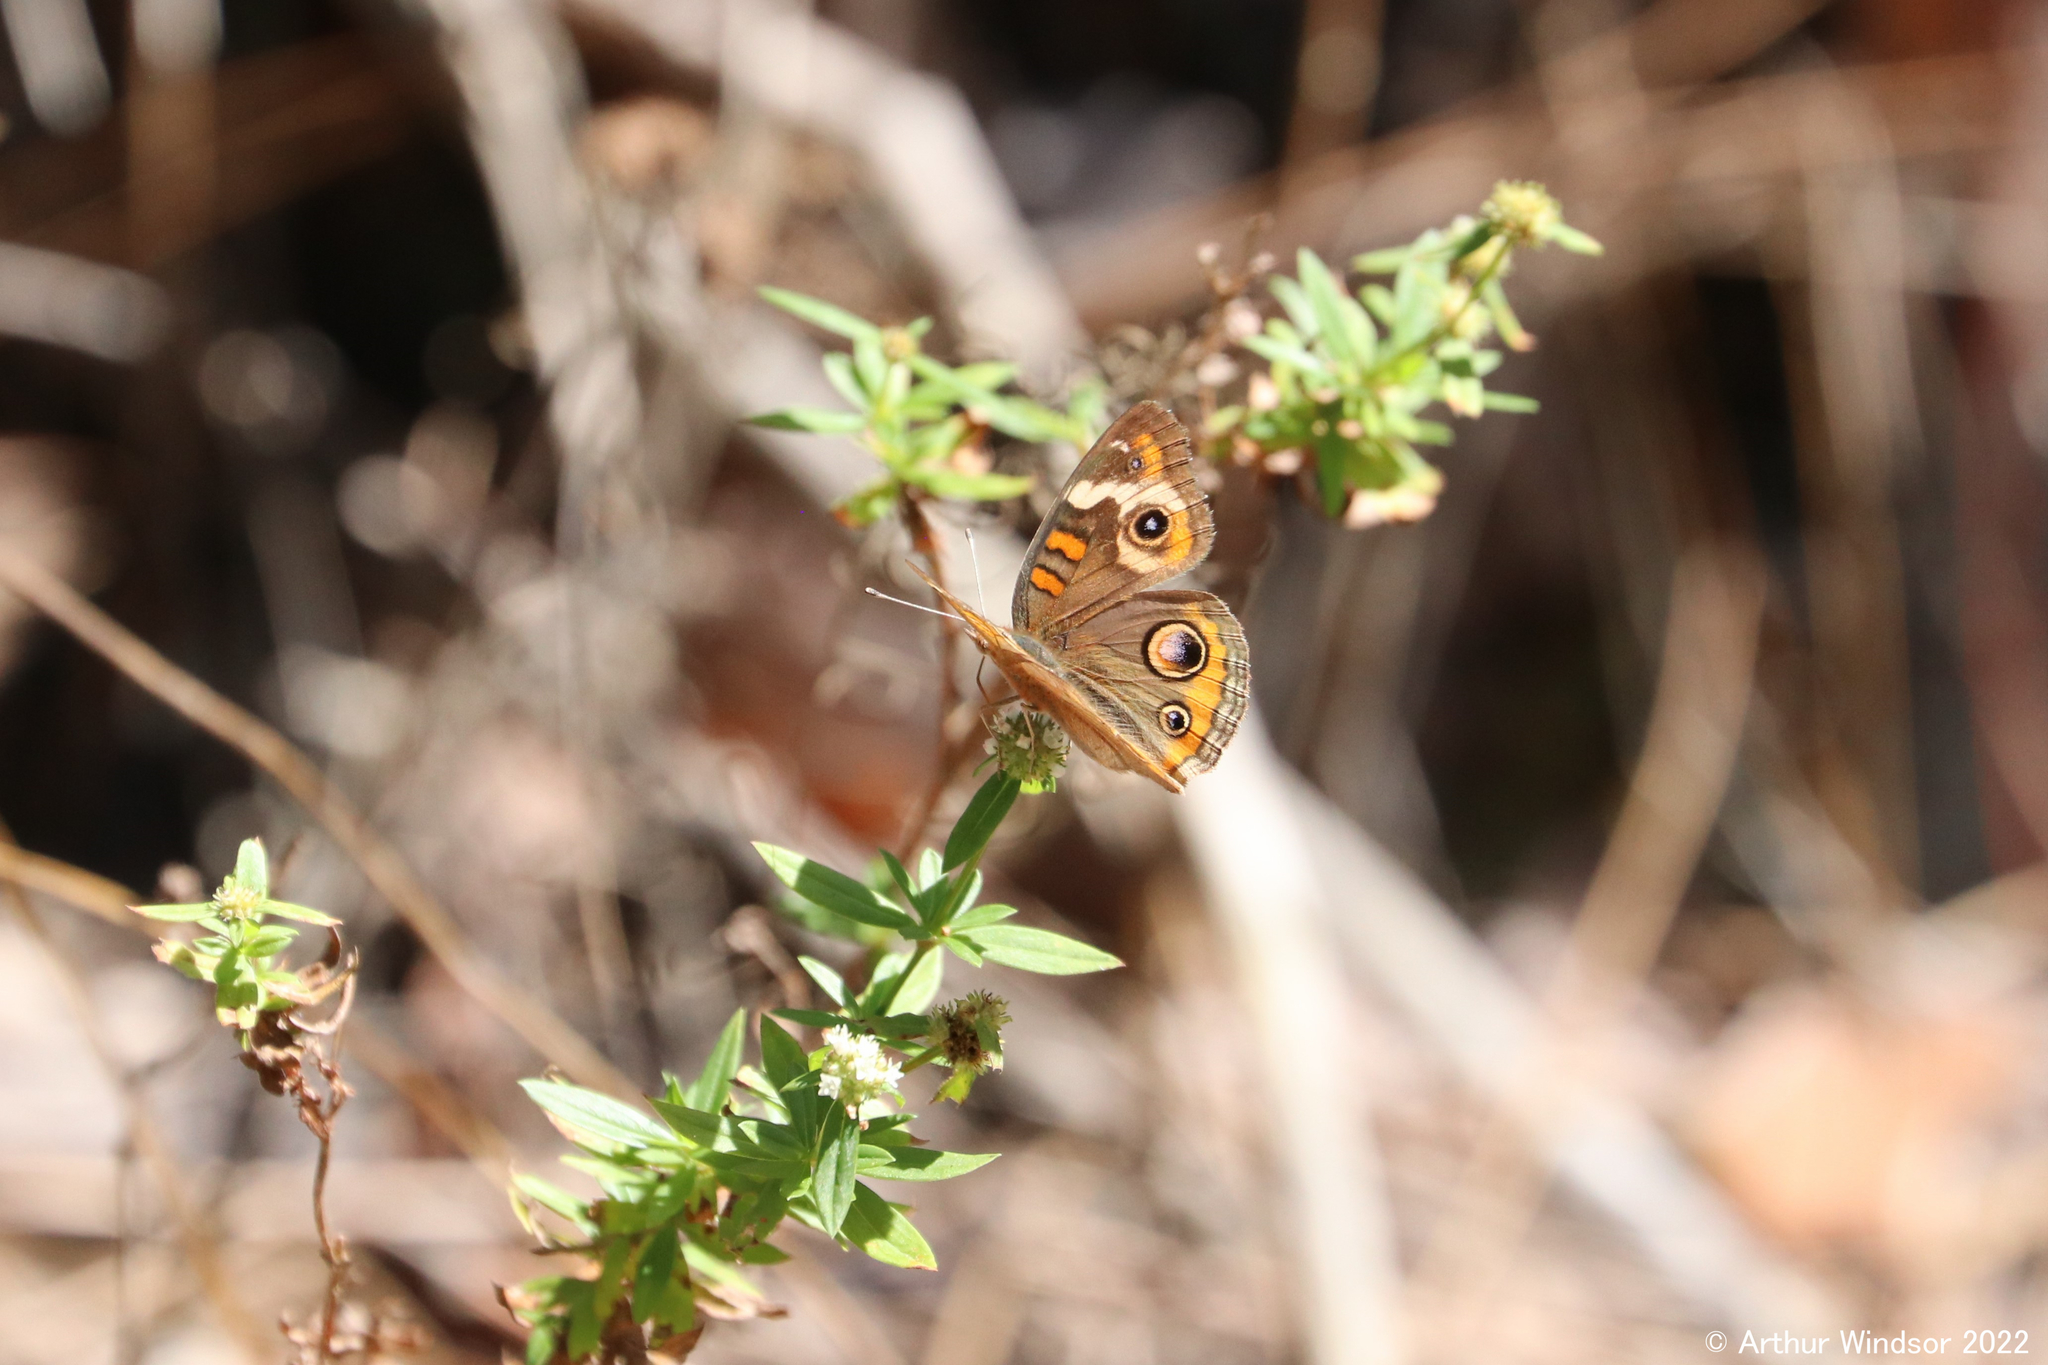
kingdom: Animalia
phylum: Arthropoda
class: Insecta
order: Lepidoptera
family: Nymphalidae
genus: Junonia
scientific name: Junonia coenia
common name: Common buckeye
